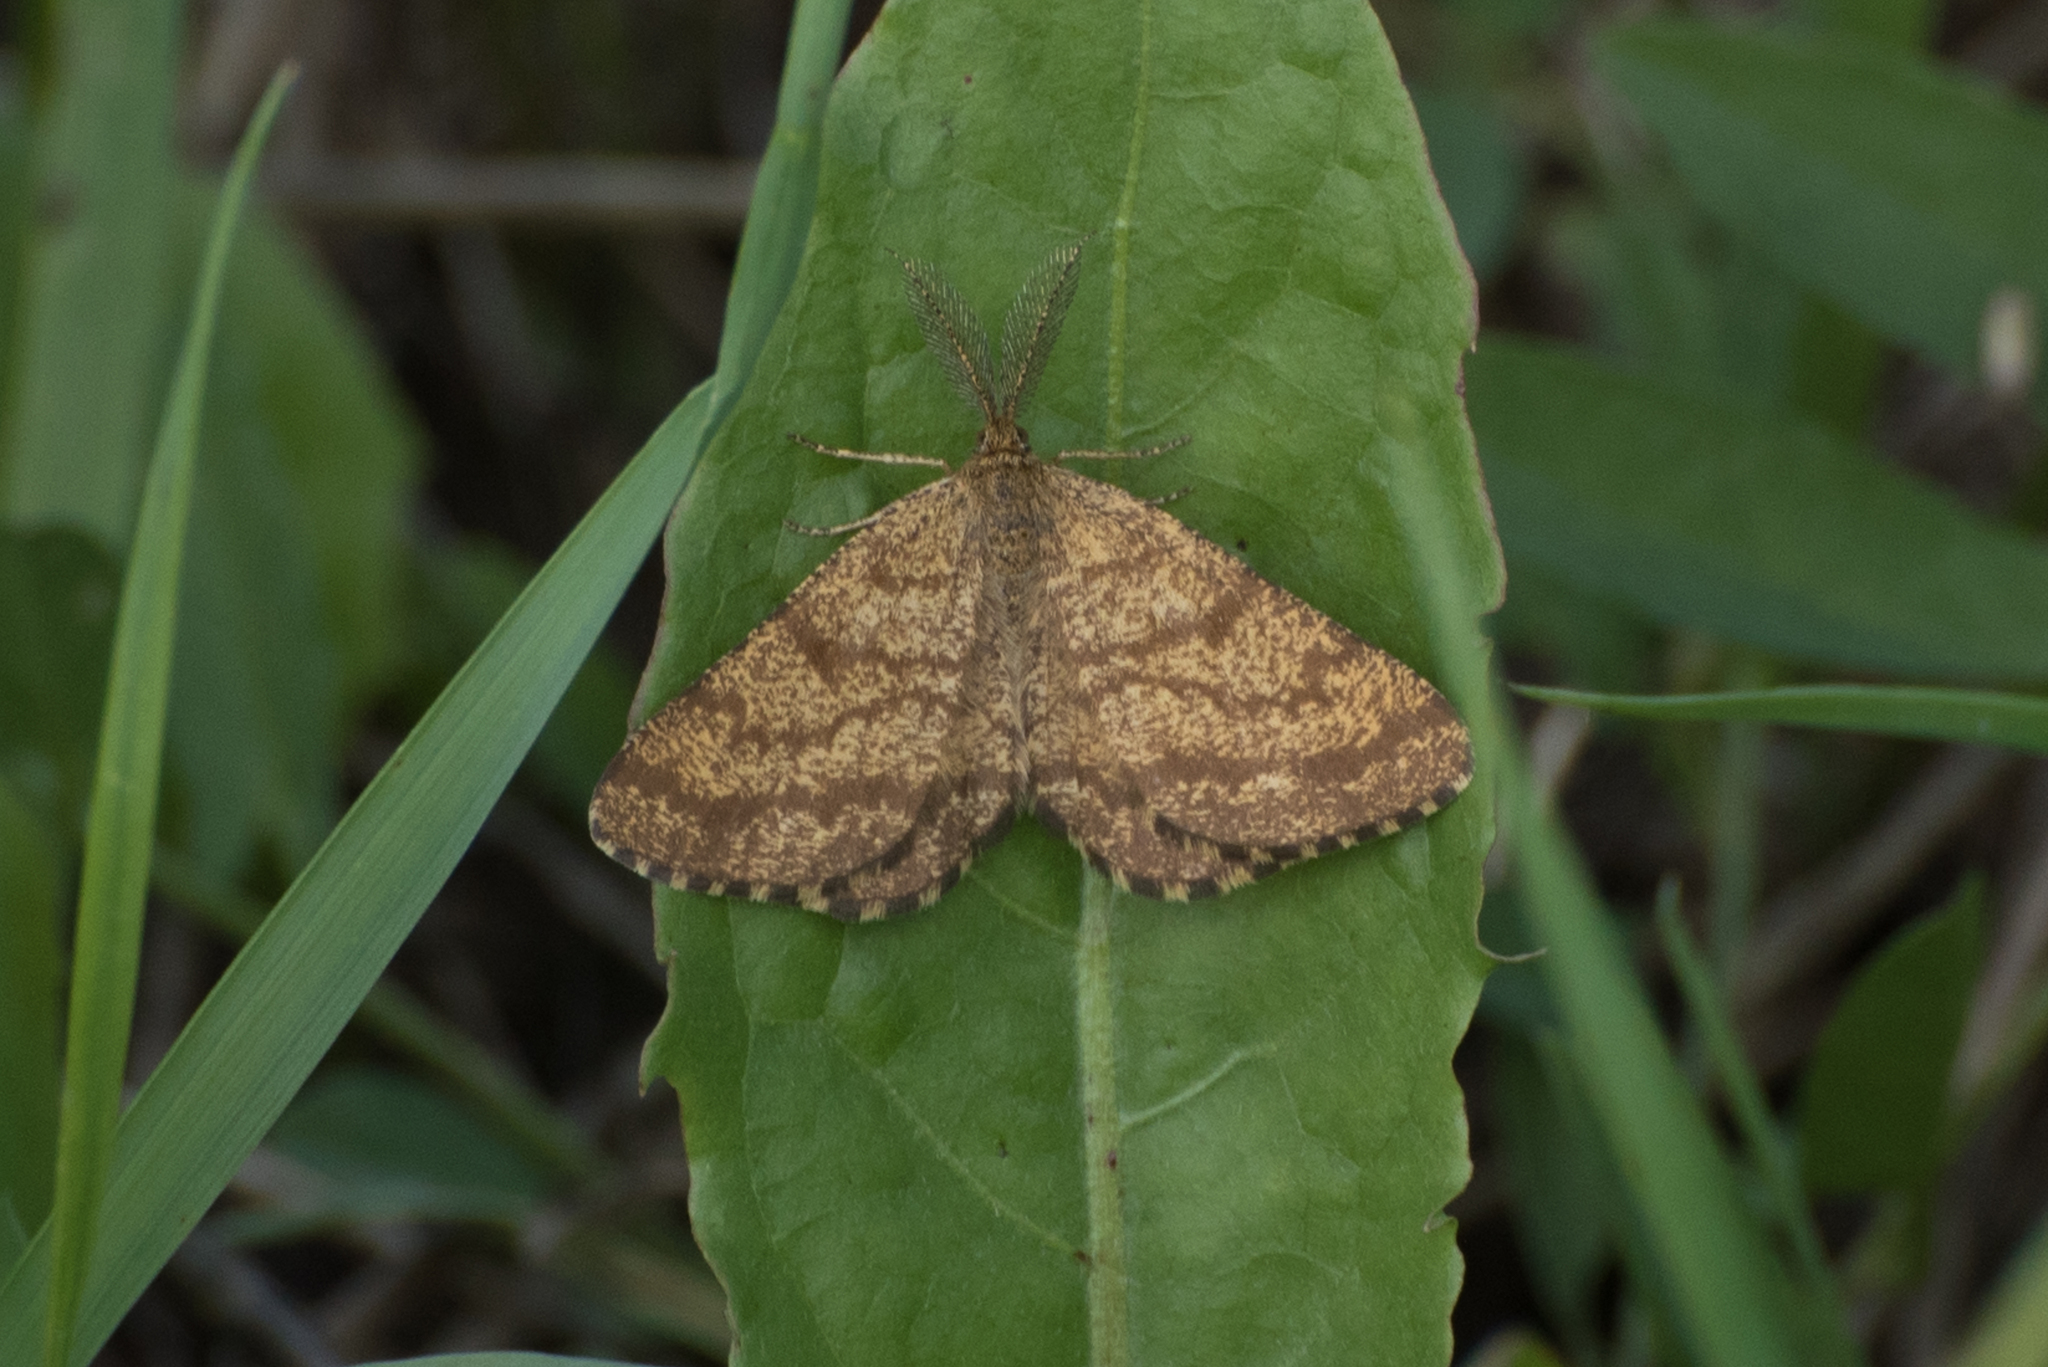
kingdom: Animalia
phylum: Arthropoda
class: Insecta
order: Lepidoptera
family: Geometridae
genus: Ematurga
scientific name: Ematurga atomaria
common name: Common heath
